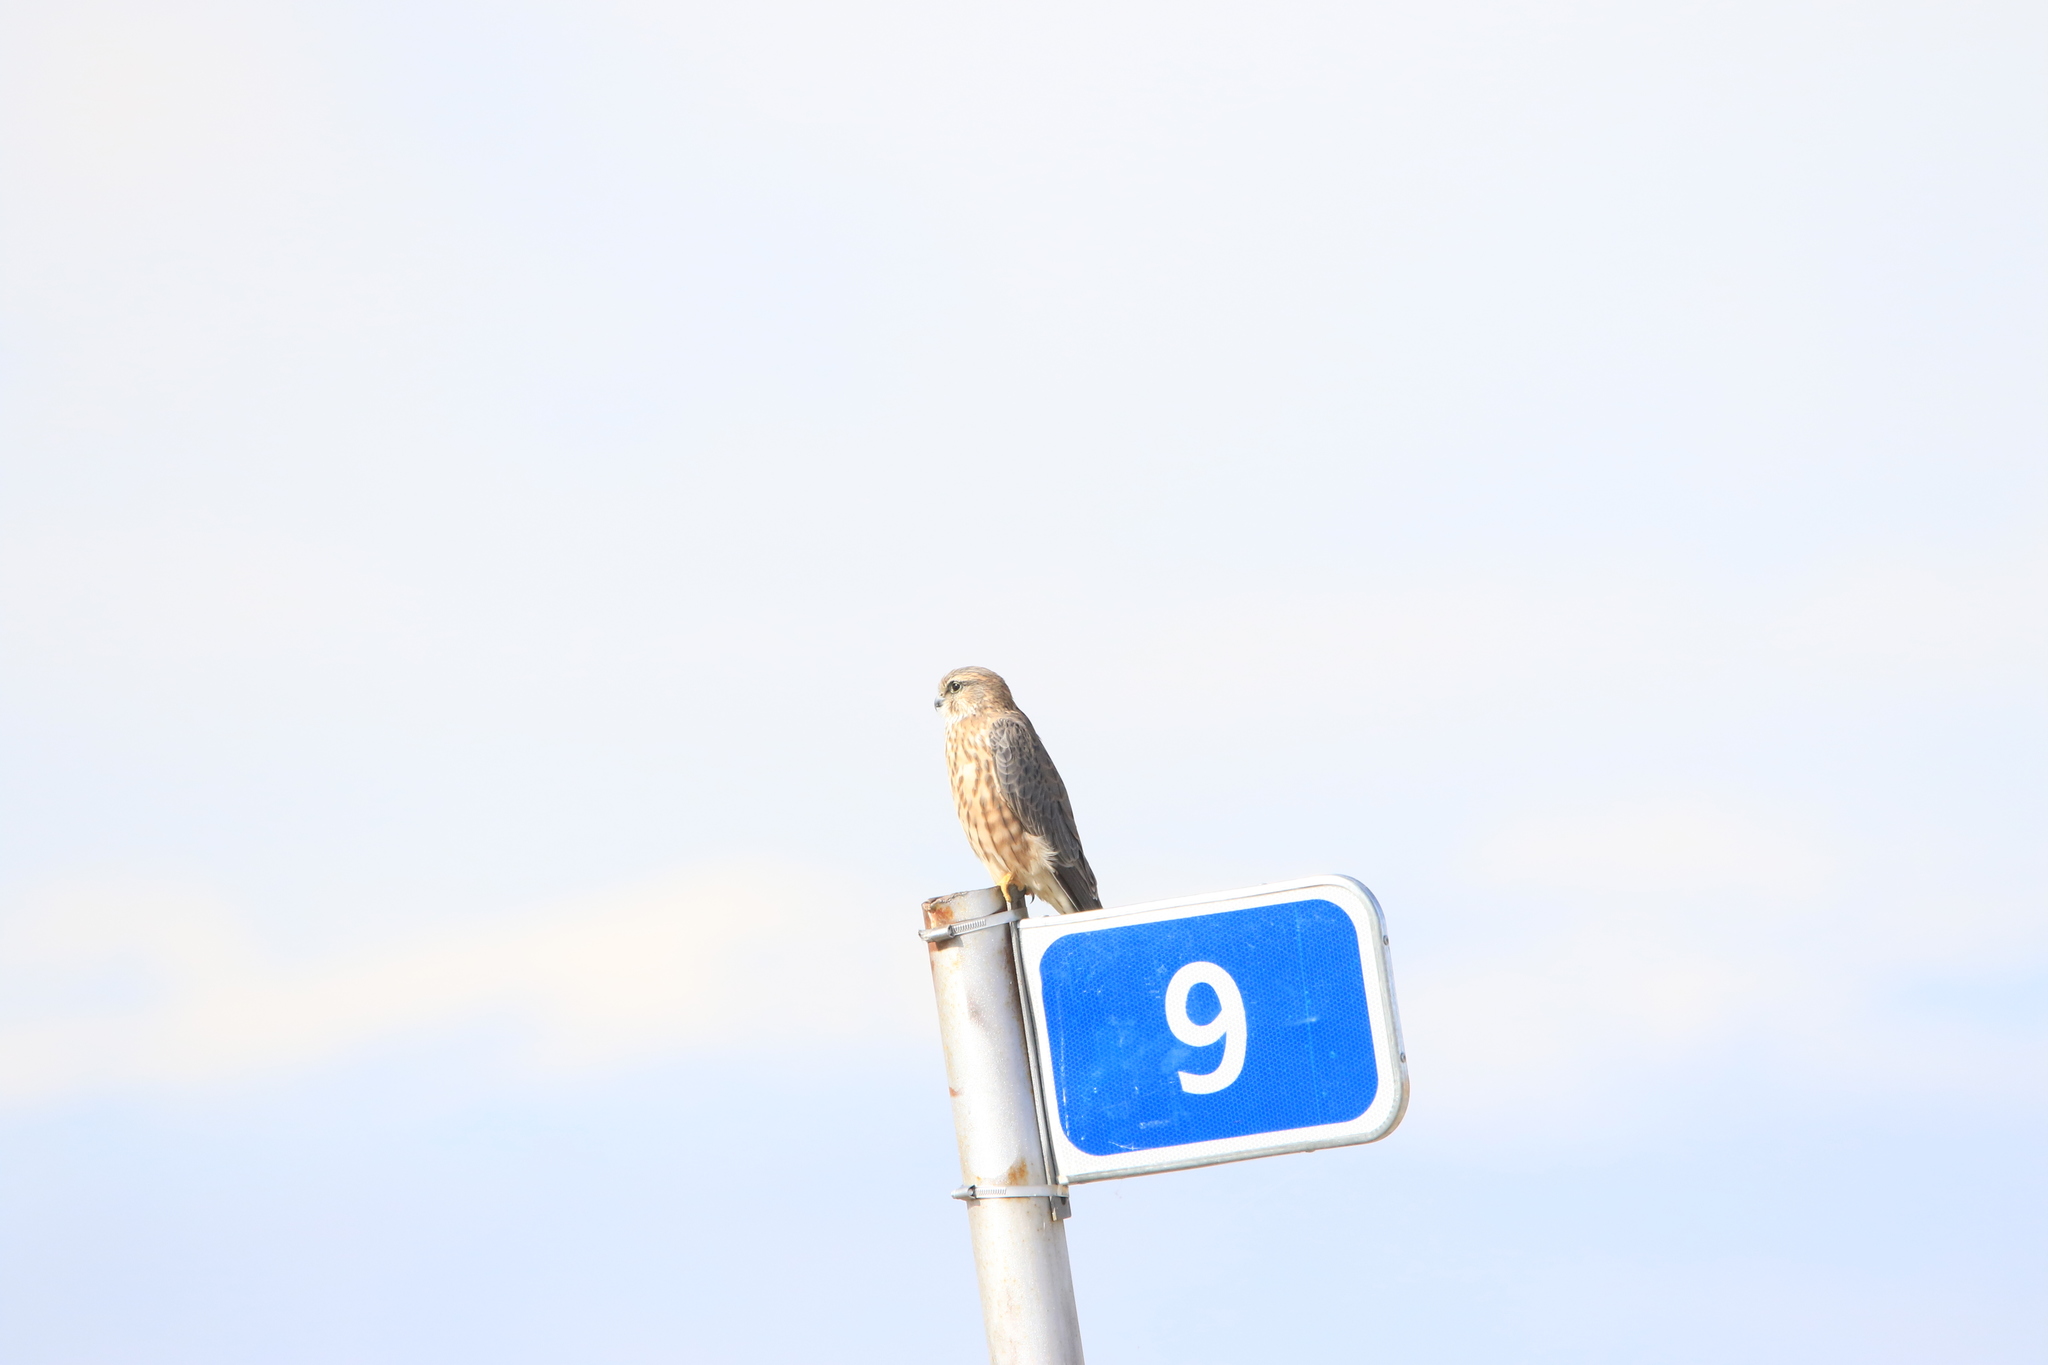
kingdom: Animalia
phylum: Chordata
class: Aves
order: Falconiformes
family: Falconidae
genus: Falco
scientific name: Falco columbarius
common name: Merlin
